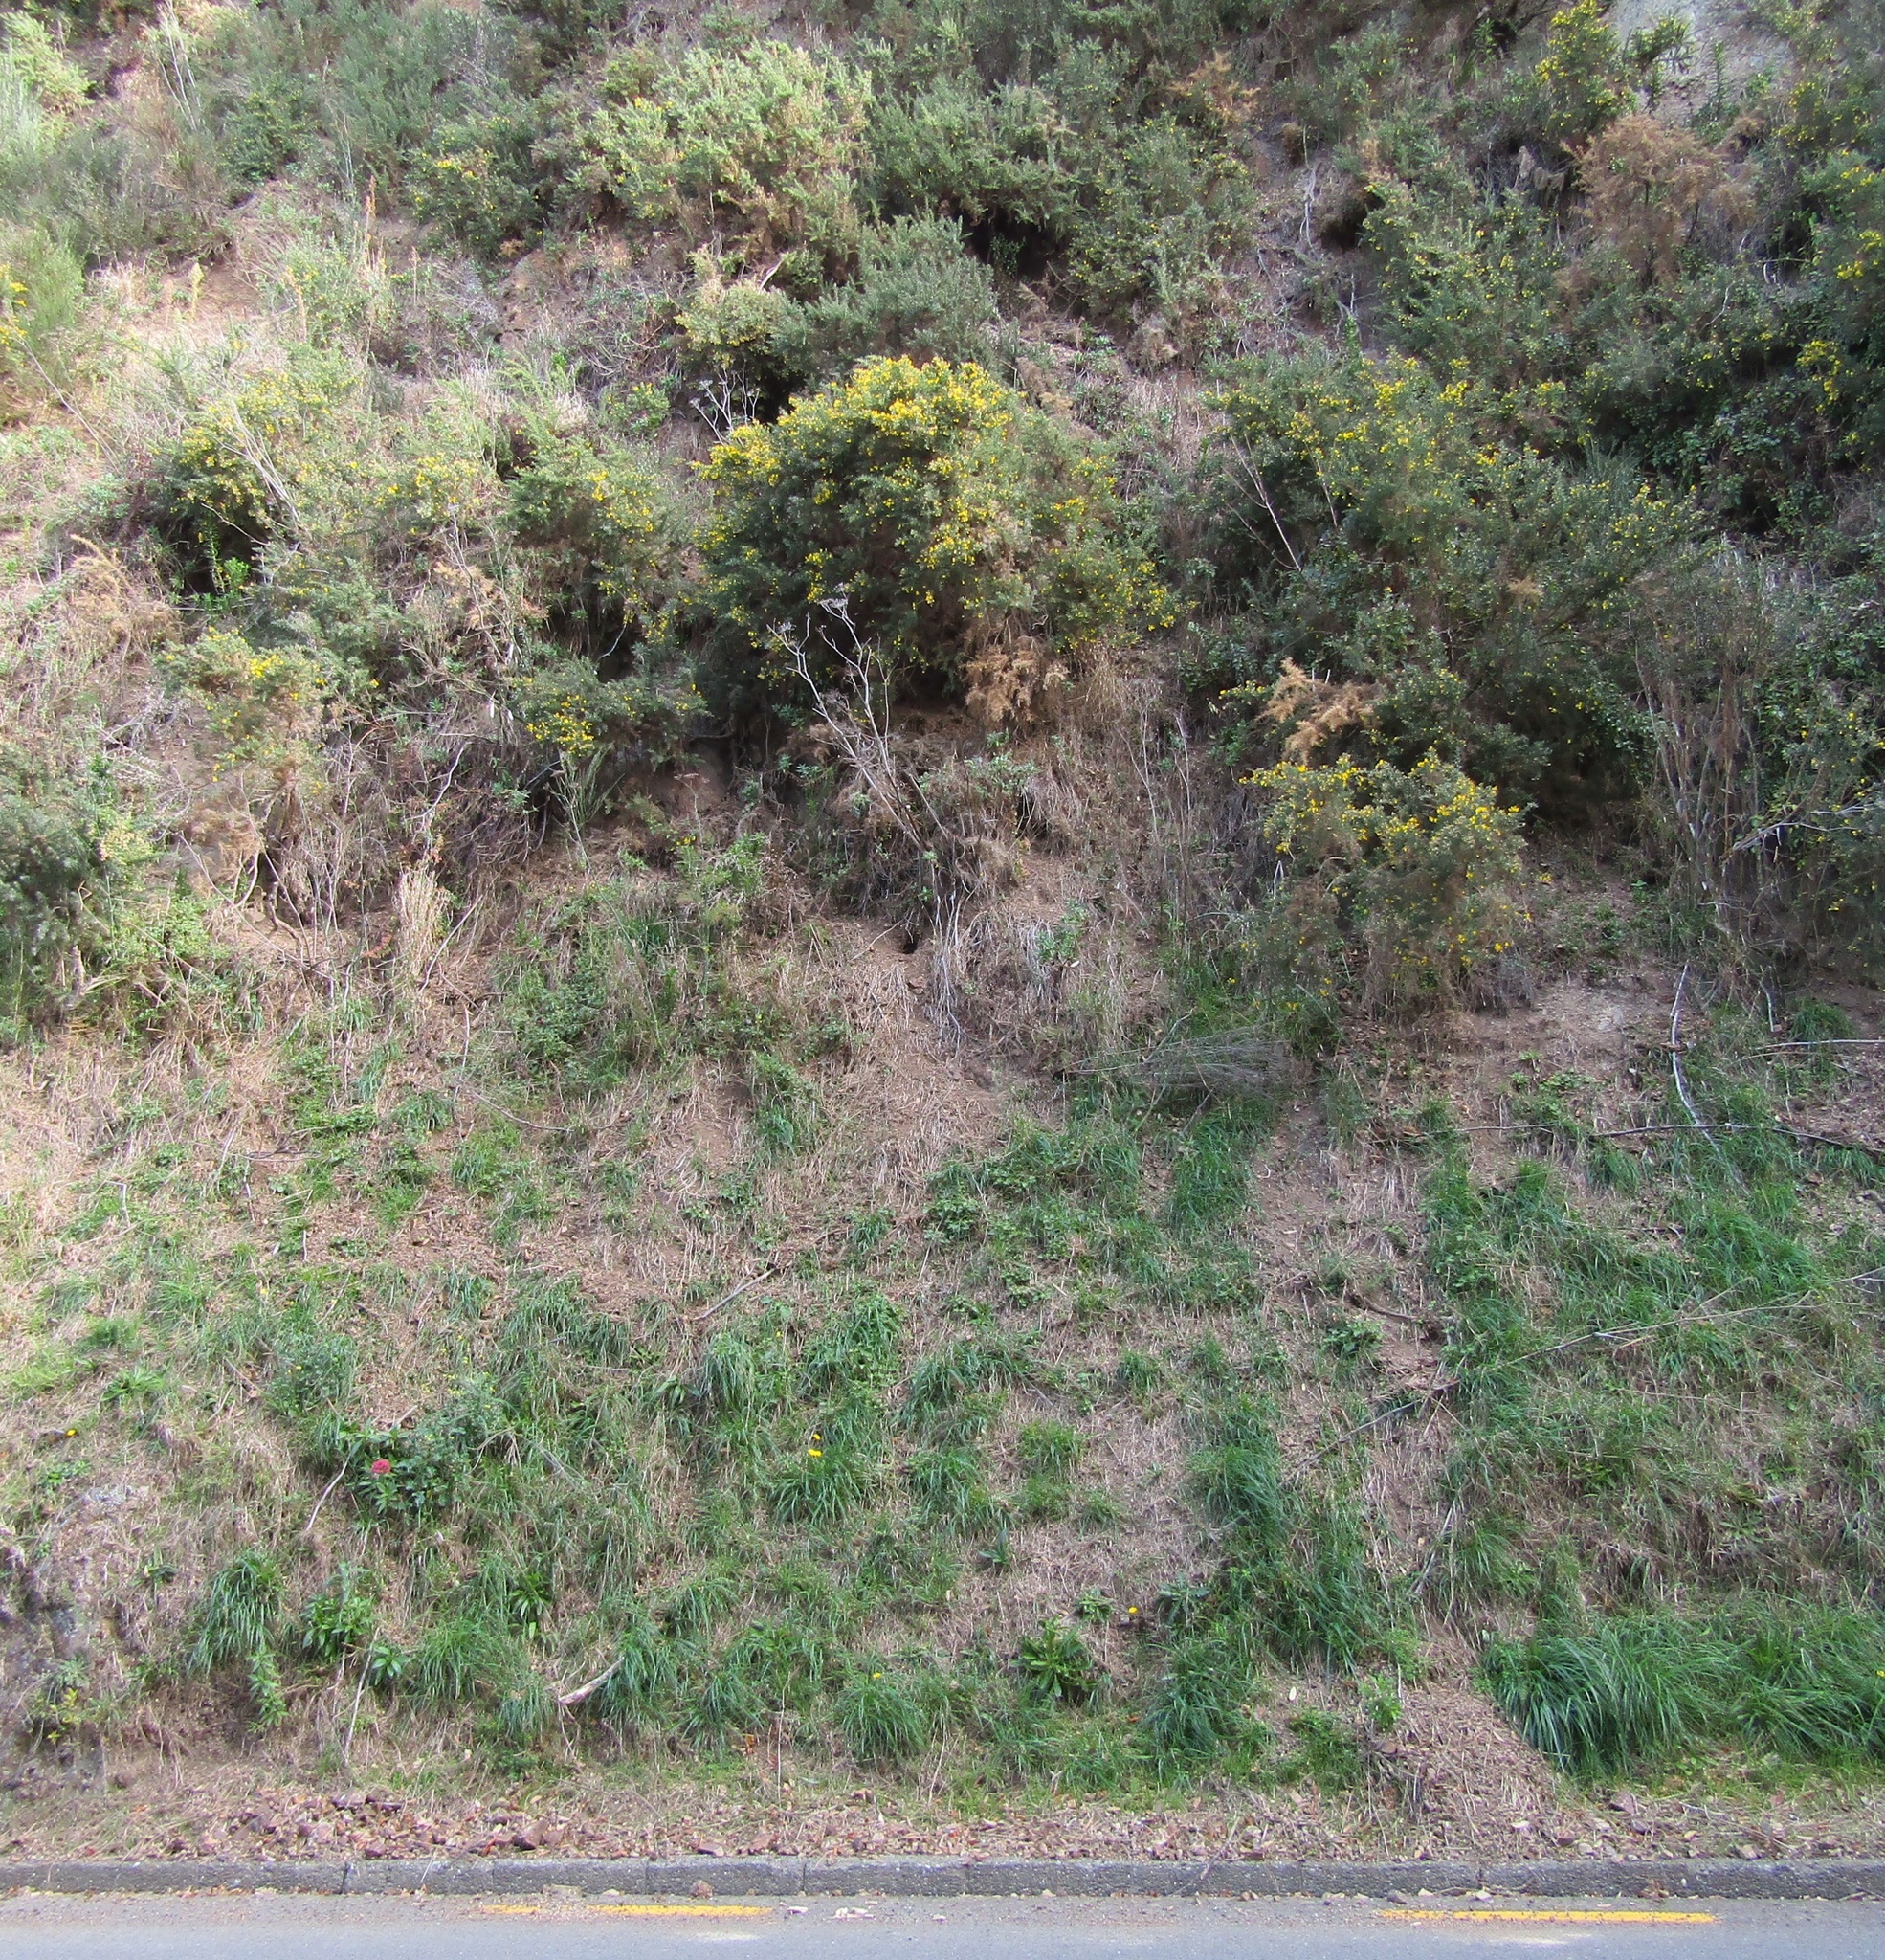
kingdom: Animalia
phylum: Chordata
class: Mammalia
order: Lagomorpha
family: Leporidae
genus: Oryctolagus
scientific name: Oryctolagus cuniculus
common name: European rabbit
